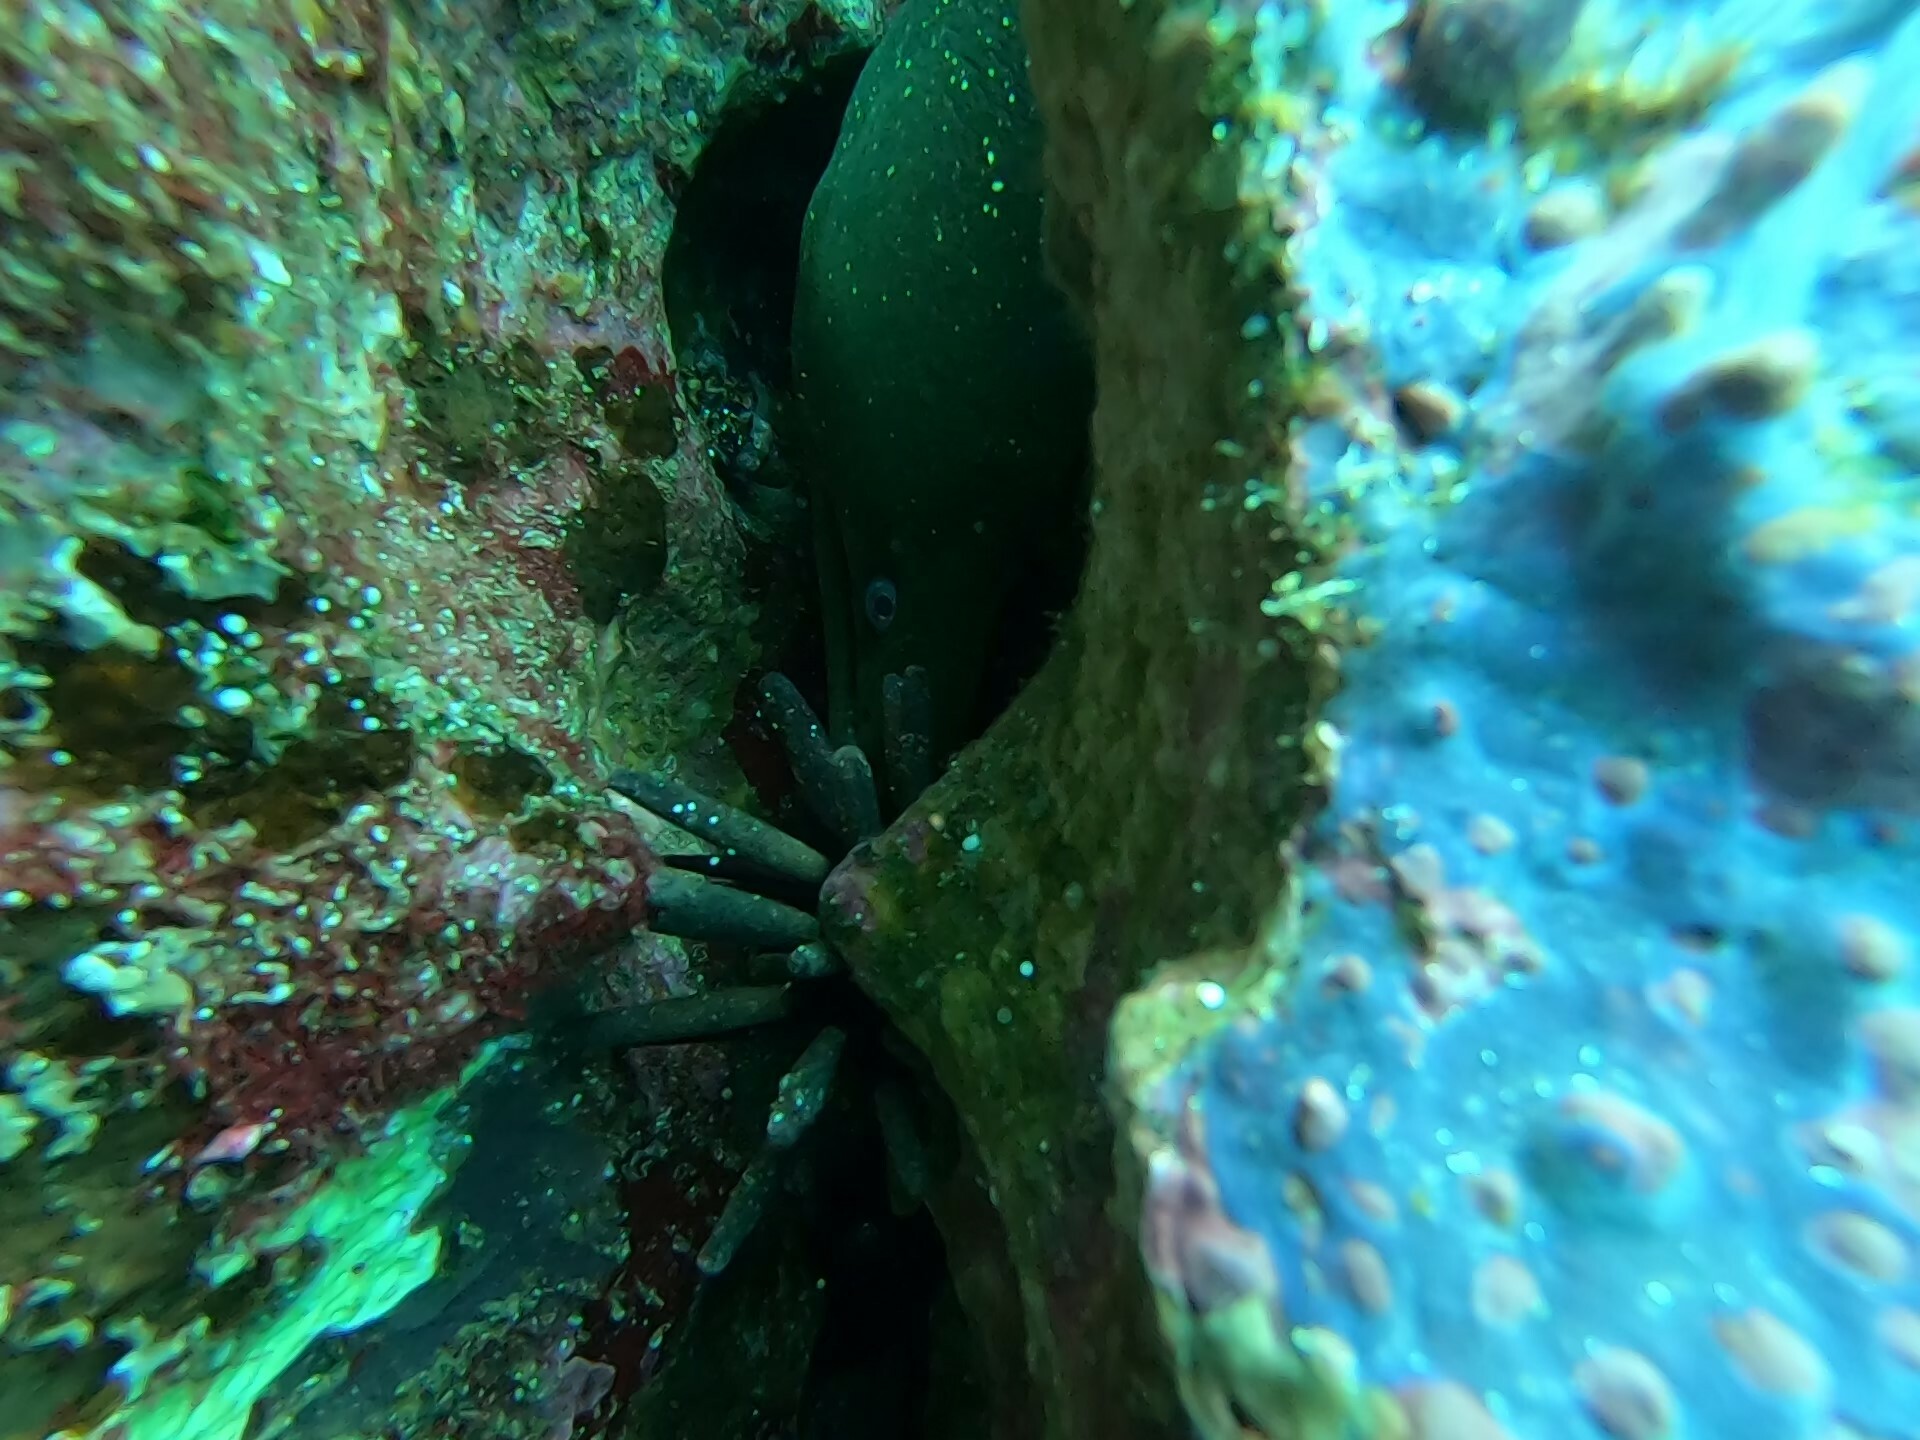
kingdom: Animalia
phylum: Chordata
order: Anguilliformes
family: Muraenidae
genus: Gymnothorax
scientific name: Gymnothorax dovii
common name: Finespotted moray
